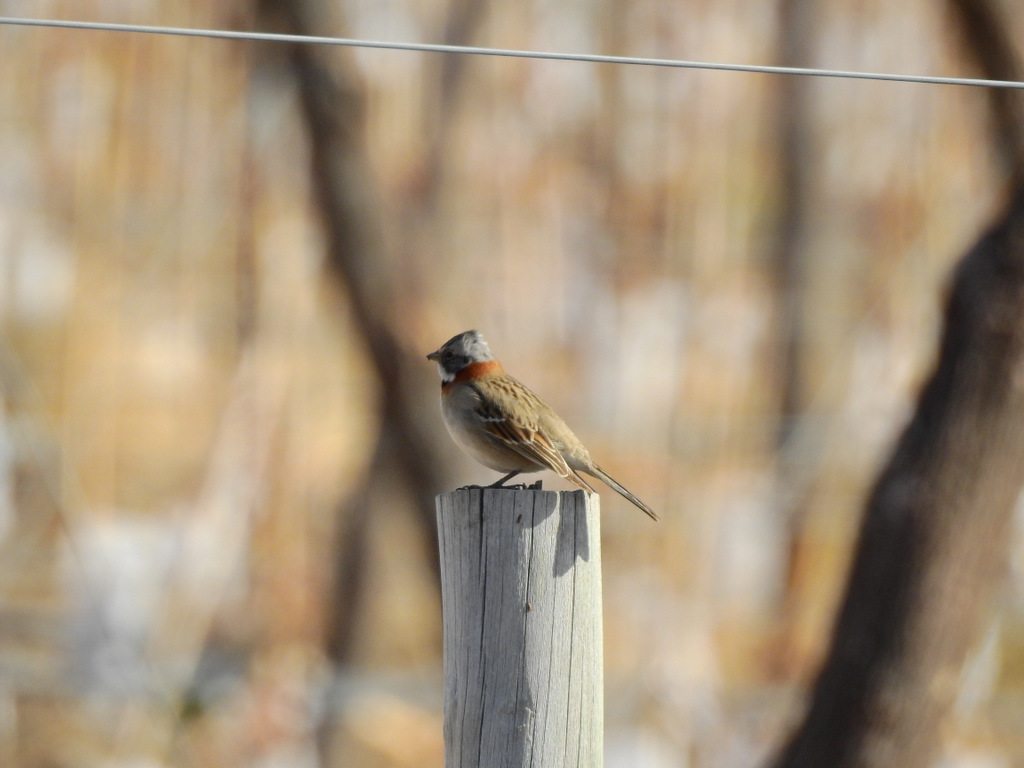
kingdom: Animalia
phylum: Chordata
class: Aves
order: Passeriformes
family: Passerellidae
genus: Zonotrichia
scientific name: Zonotrichia capensis
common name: Rufous-collared sparrow
